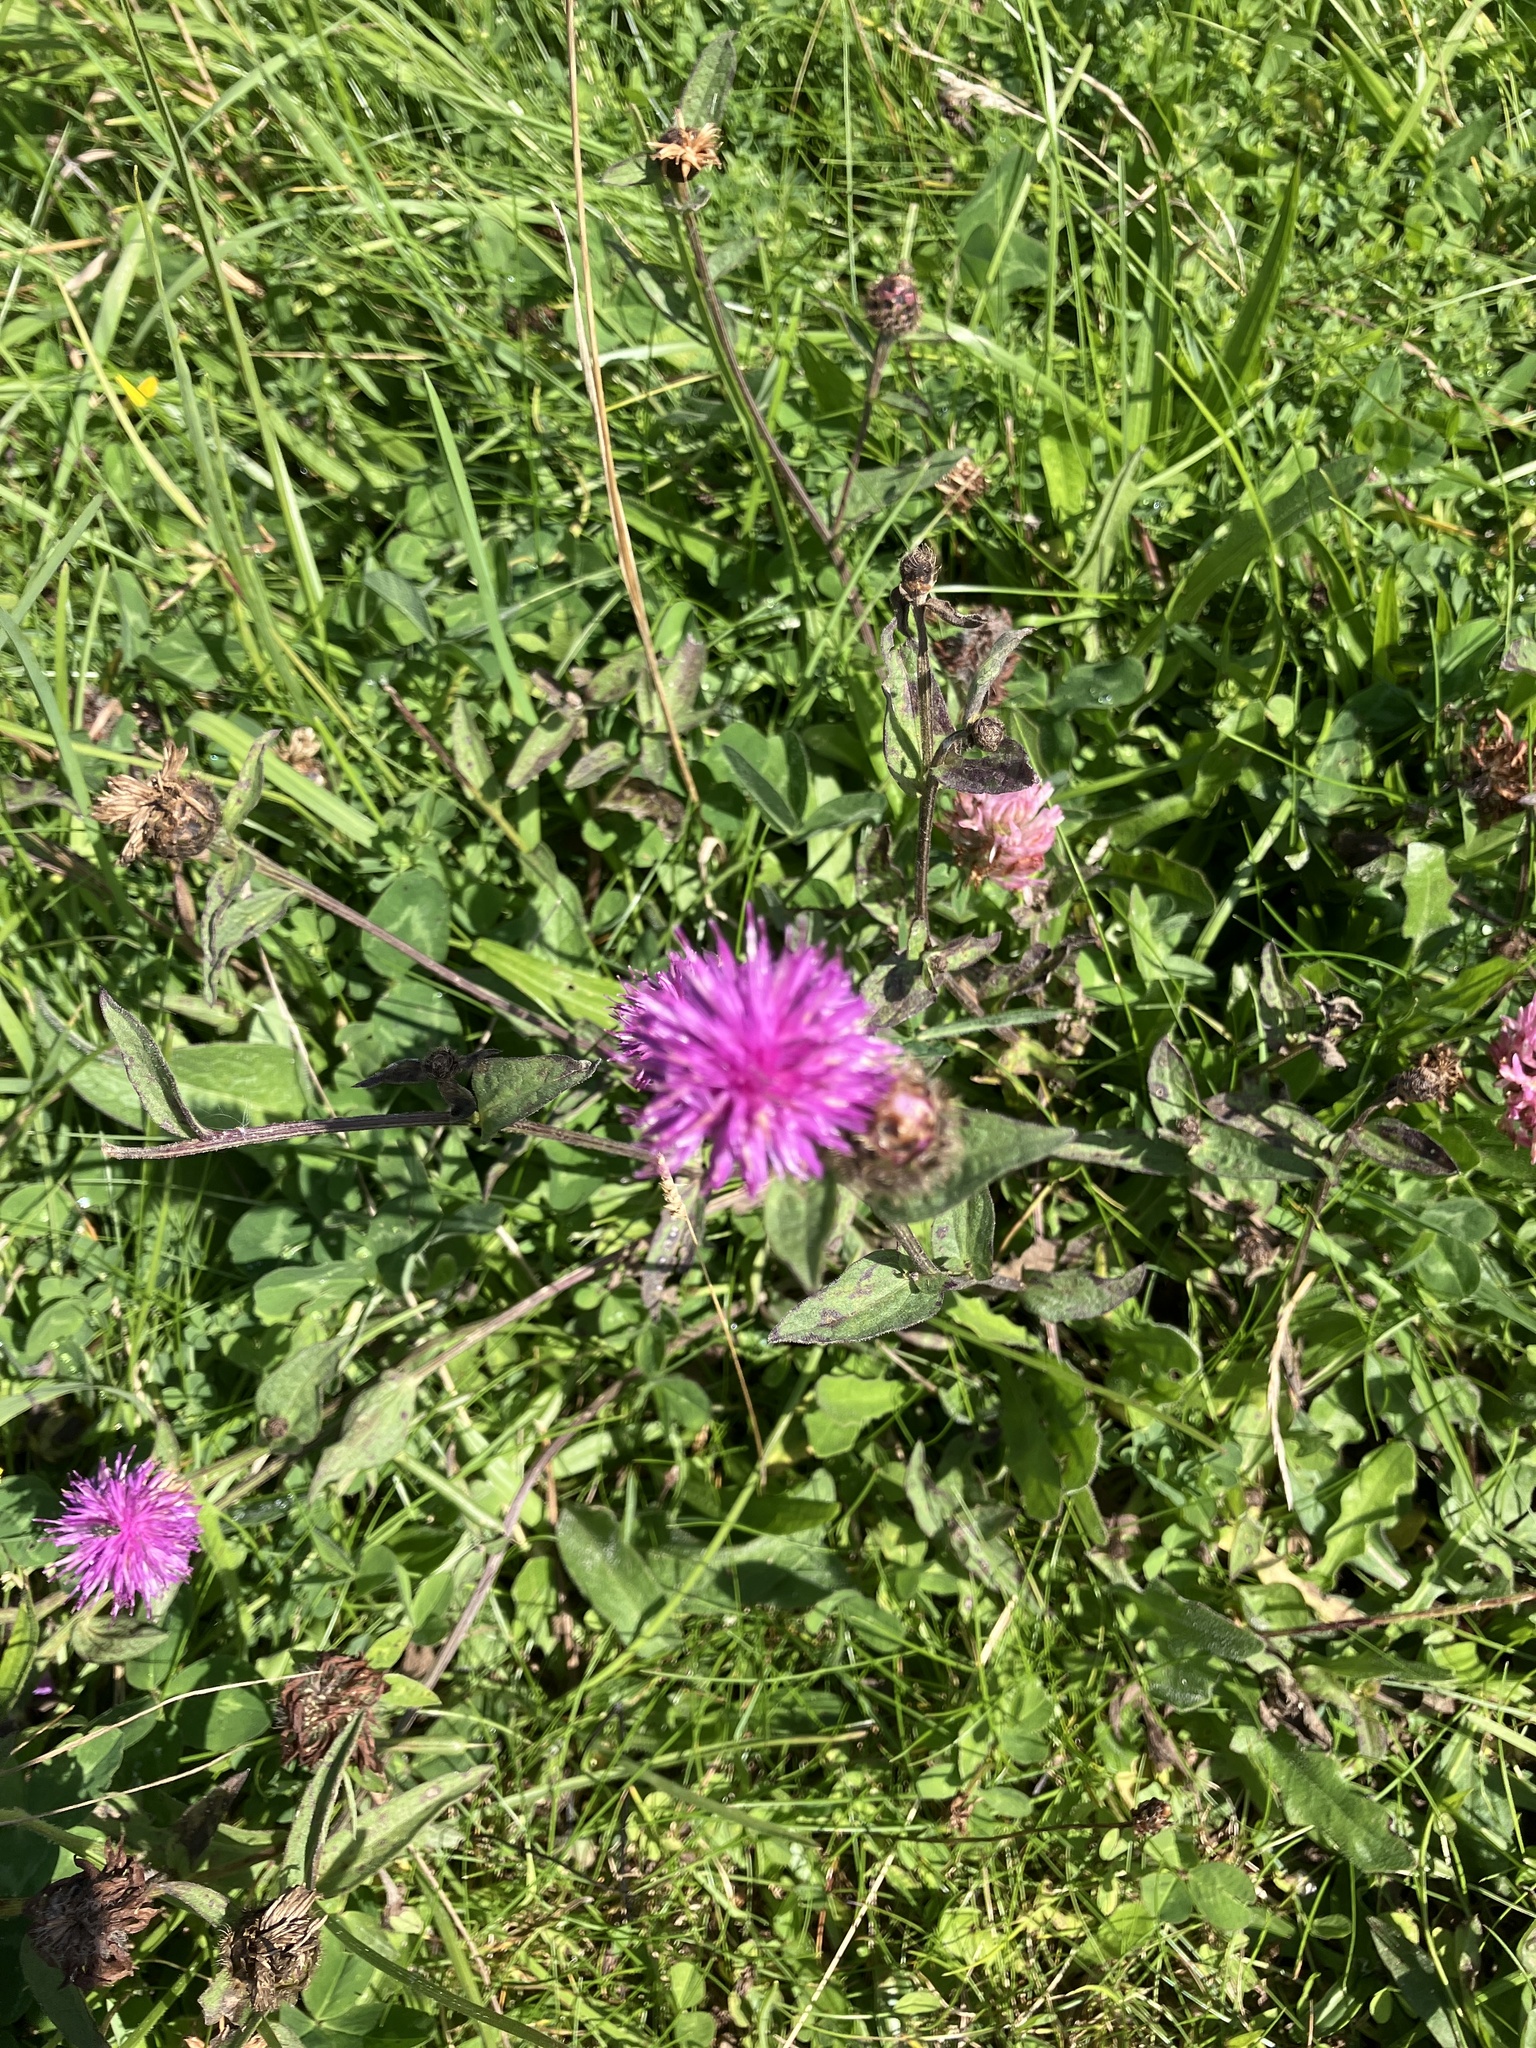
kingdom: Plantae
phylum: Tracheophyta
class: Magnoliopsida
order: Asterales
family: Asteraceae
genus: Centaurea
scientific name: Centaurea nigra
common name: Lesser knapweed
